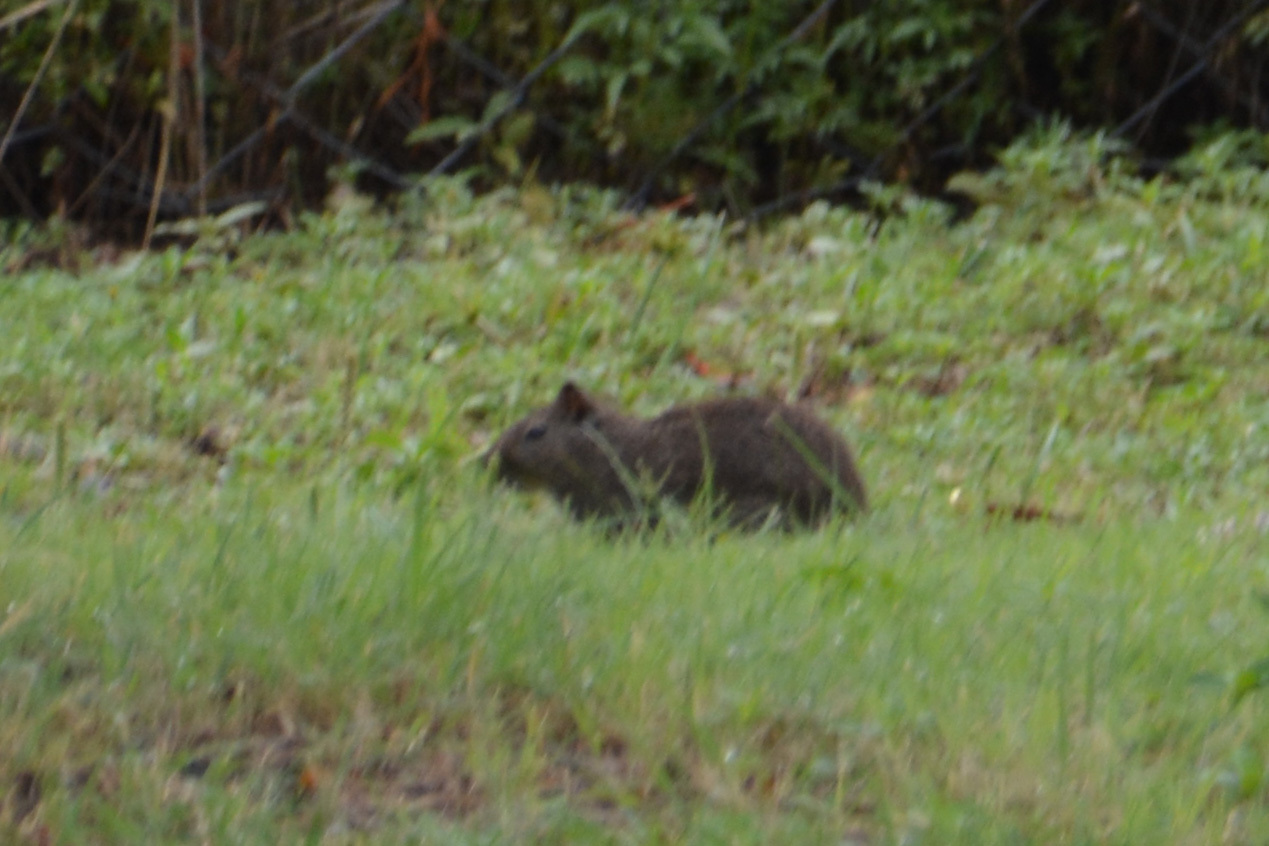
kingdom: Animalia
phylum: Chordata
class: Mammalia
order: Rodentia
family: Caviidae
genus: Cavia
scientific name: Cavia aperea
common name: Brazilian guinea pig
